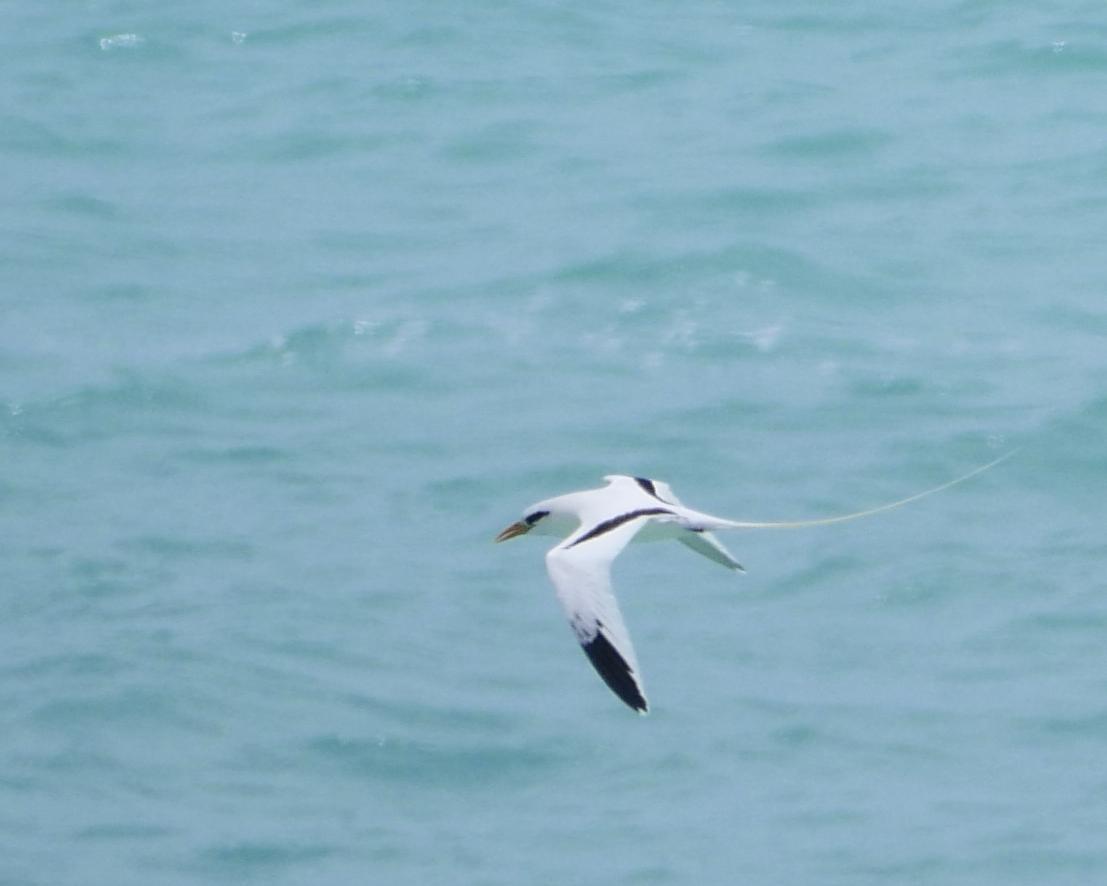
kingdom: Animalia
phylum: Chordata
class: Aves
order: Phaethontiformes
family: Phaethontidae
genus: Phaethon
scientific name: Phaethon lepturus
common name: White-tailed tropicbird
